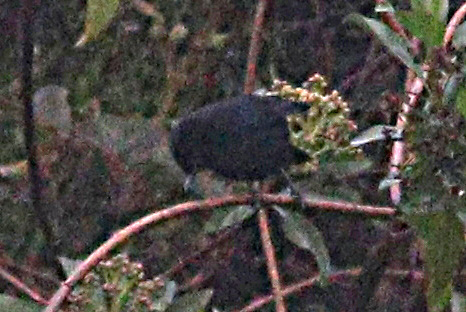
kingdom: Animalia
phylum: Chordata
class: Aves
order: Passeriformes
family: Thraupidae
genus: Diglossa
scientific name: Diglossa humeralis
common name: Black flowerpiercer
